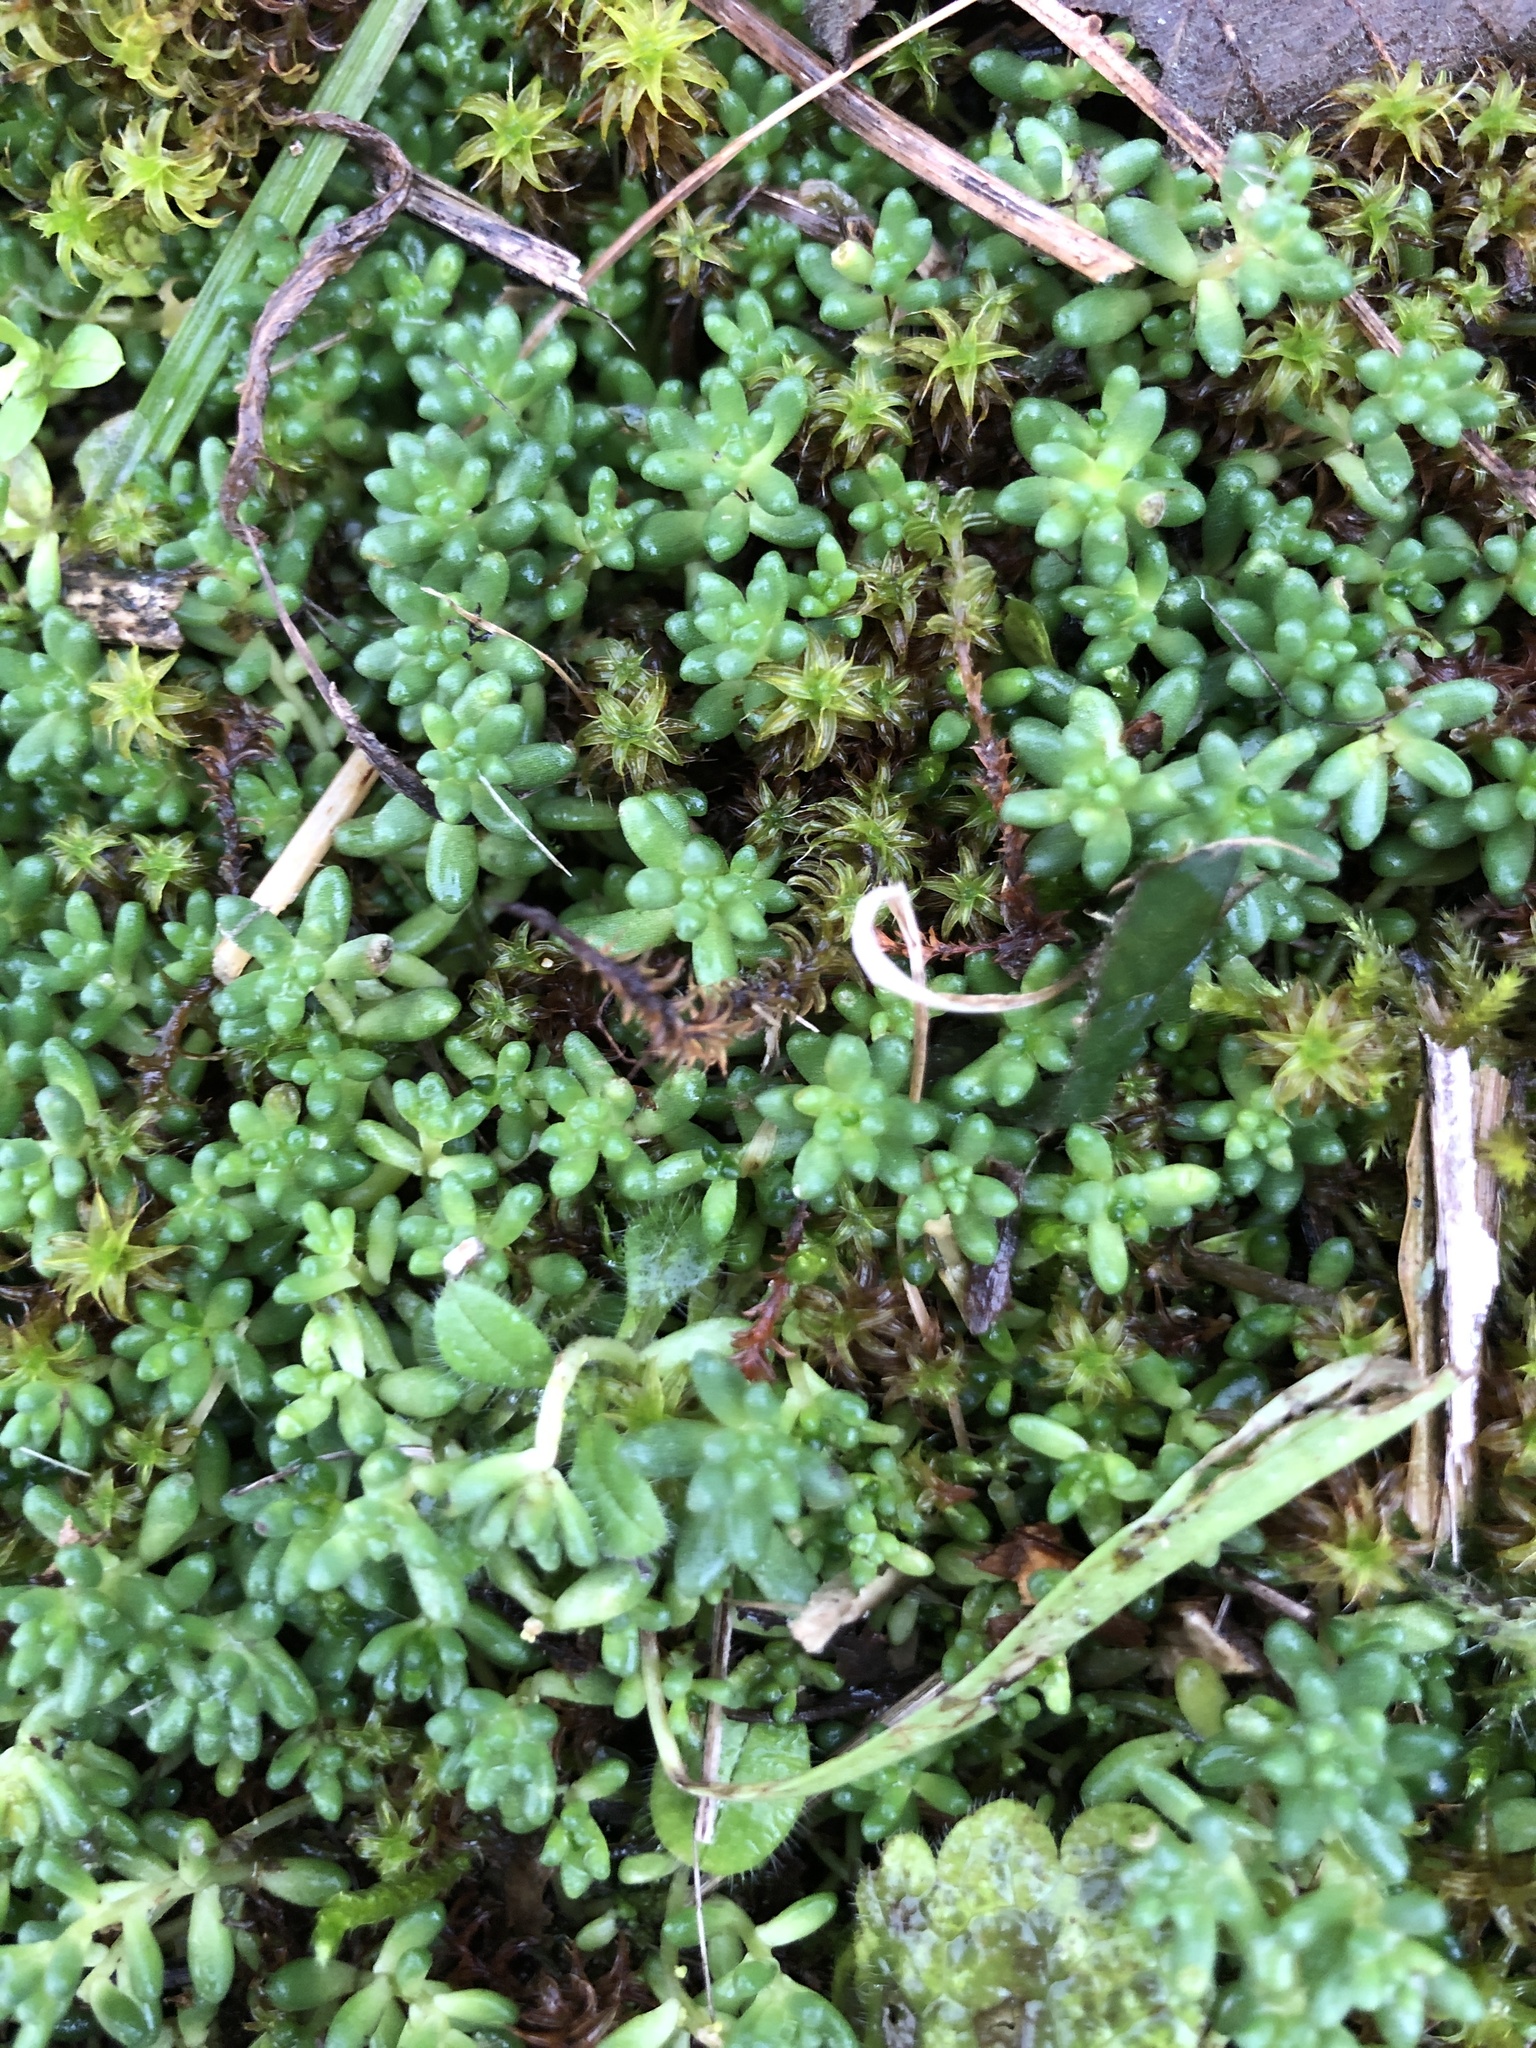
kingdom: Plantae
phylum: Tracheophyta
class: Magnoliopsida
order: Saxifragales
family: Crassulaceae
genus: Sedum
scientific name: Sedum album
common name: White stonecrop
